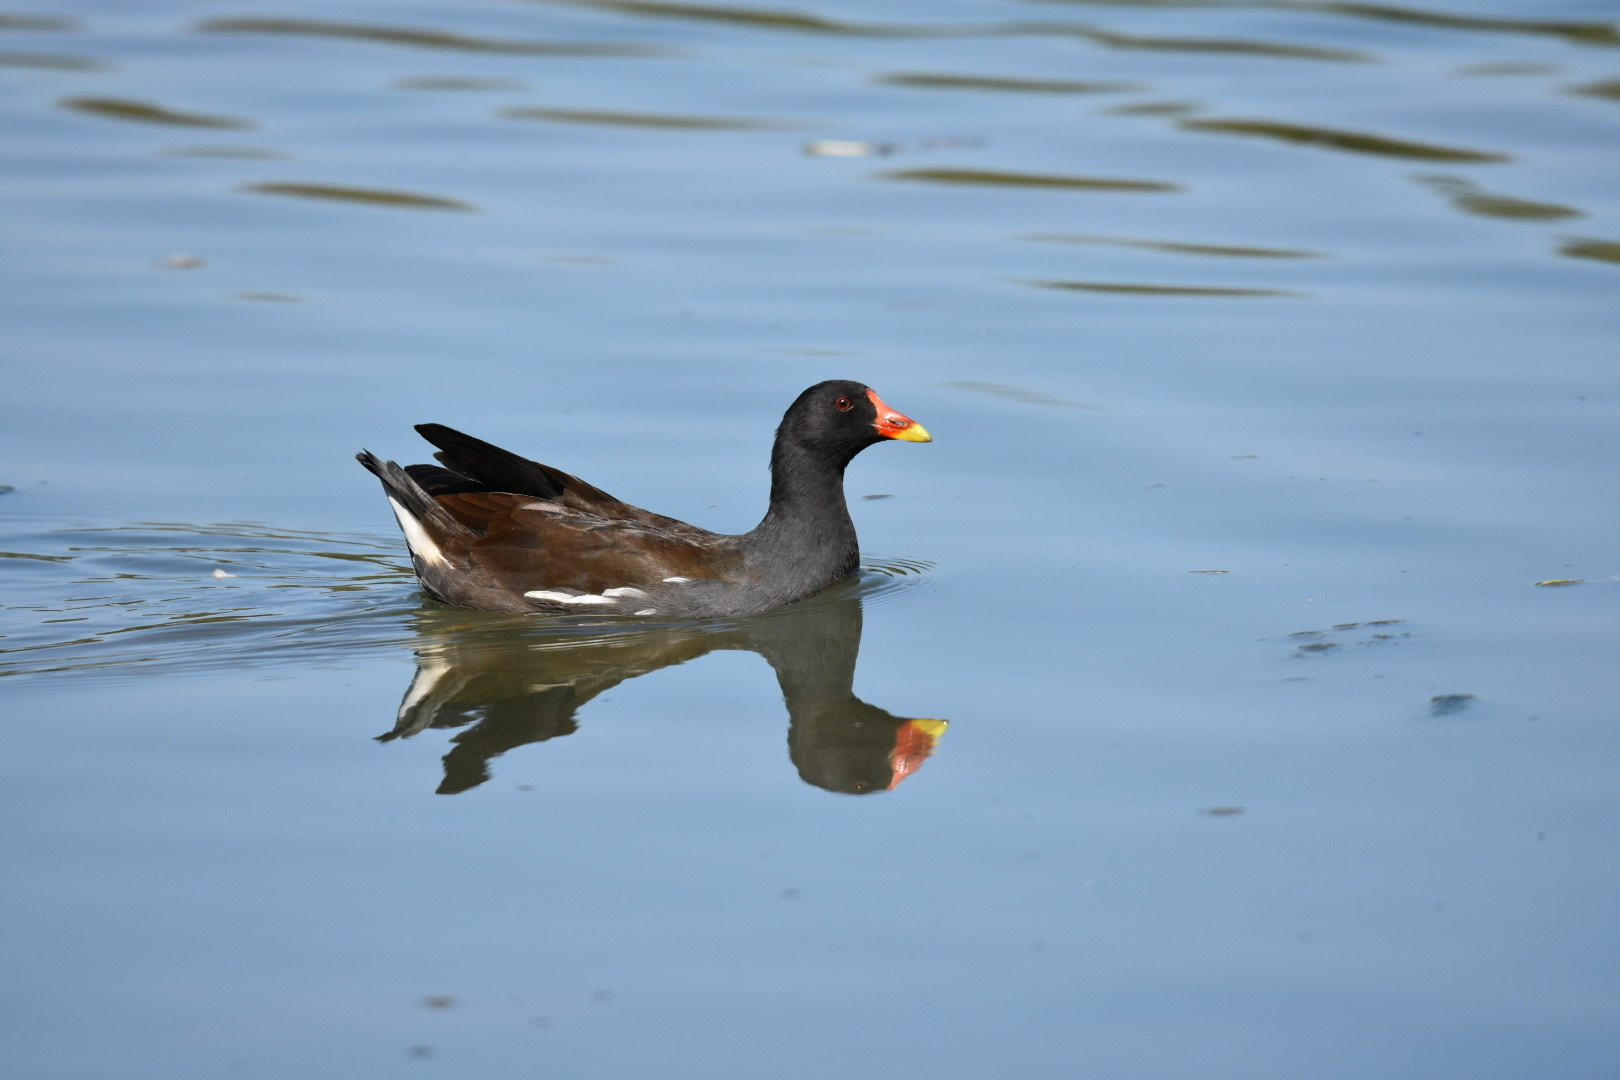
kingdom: Animalia
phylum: Chordata
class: Aves
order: Gruiformes
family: Rallidae
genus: Gallinula
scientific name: Gallinula chloropus
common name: Common moorhen
